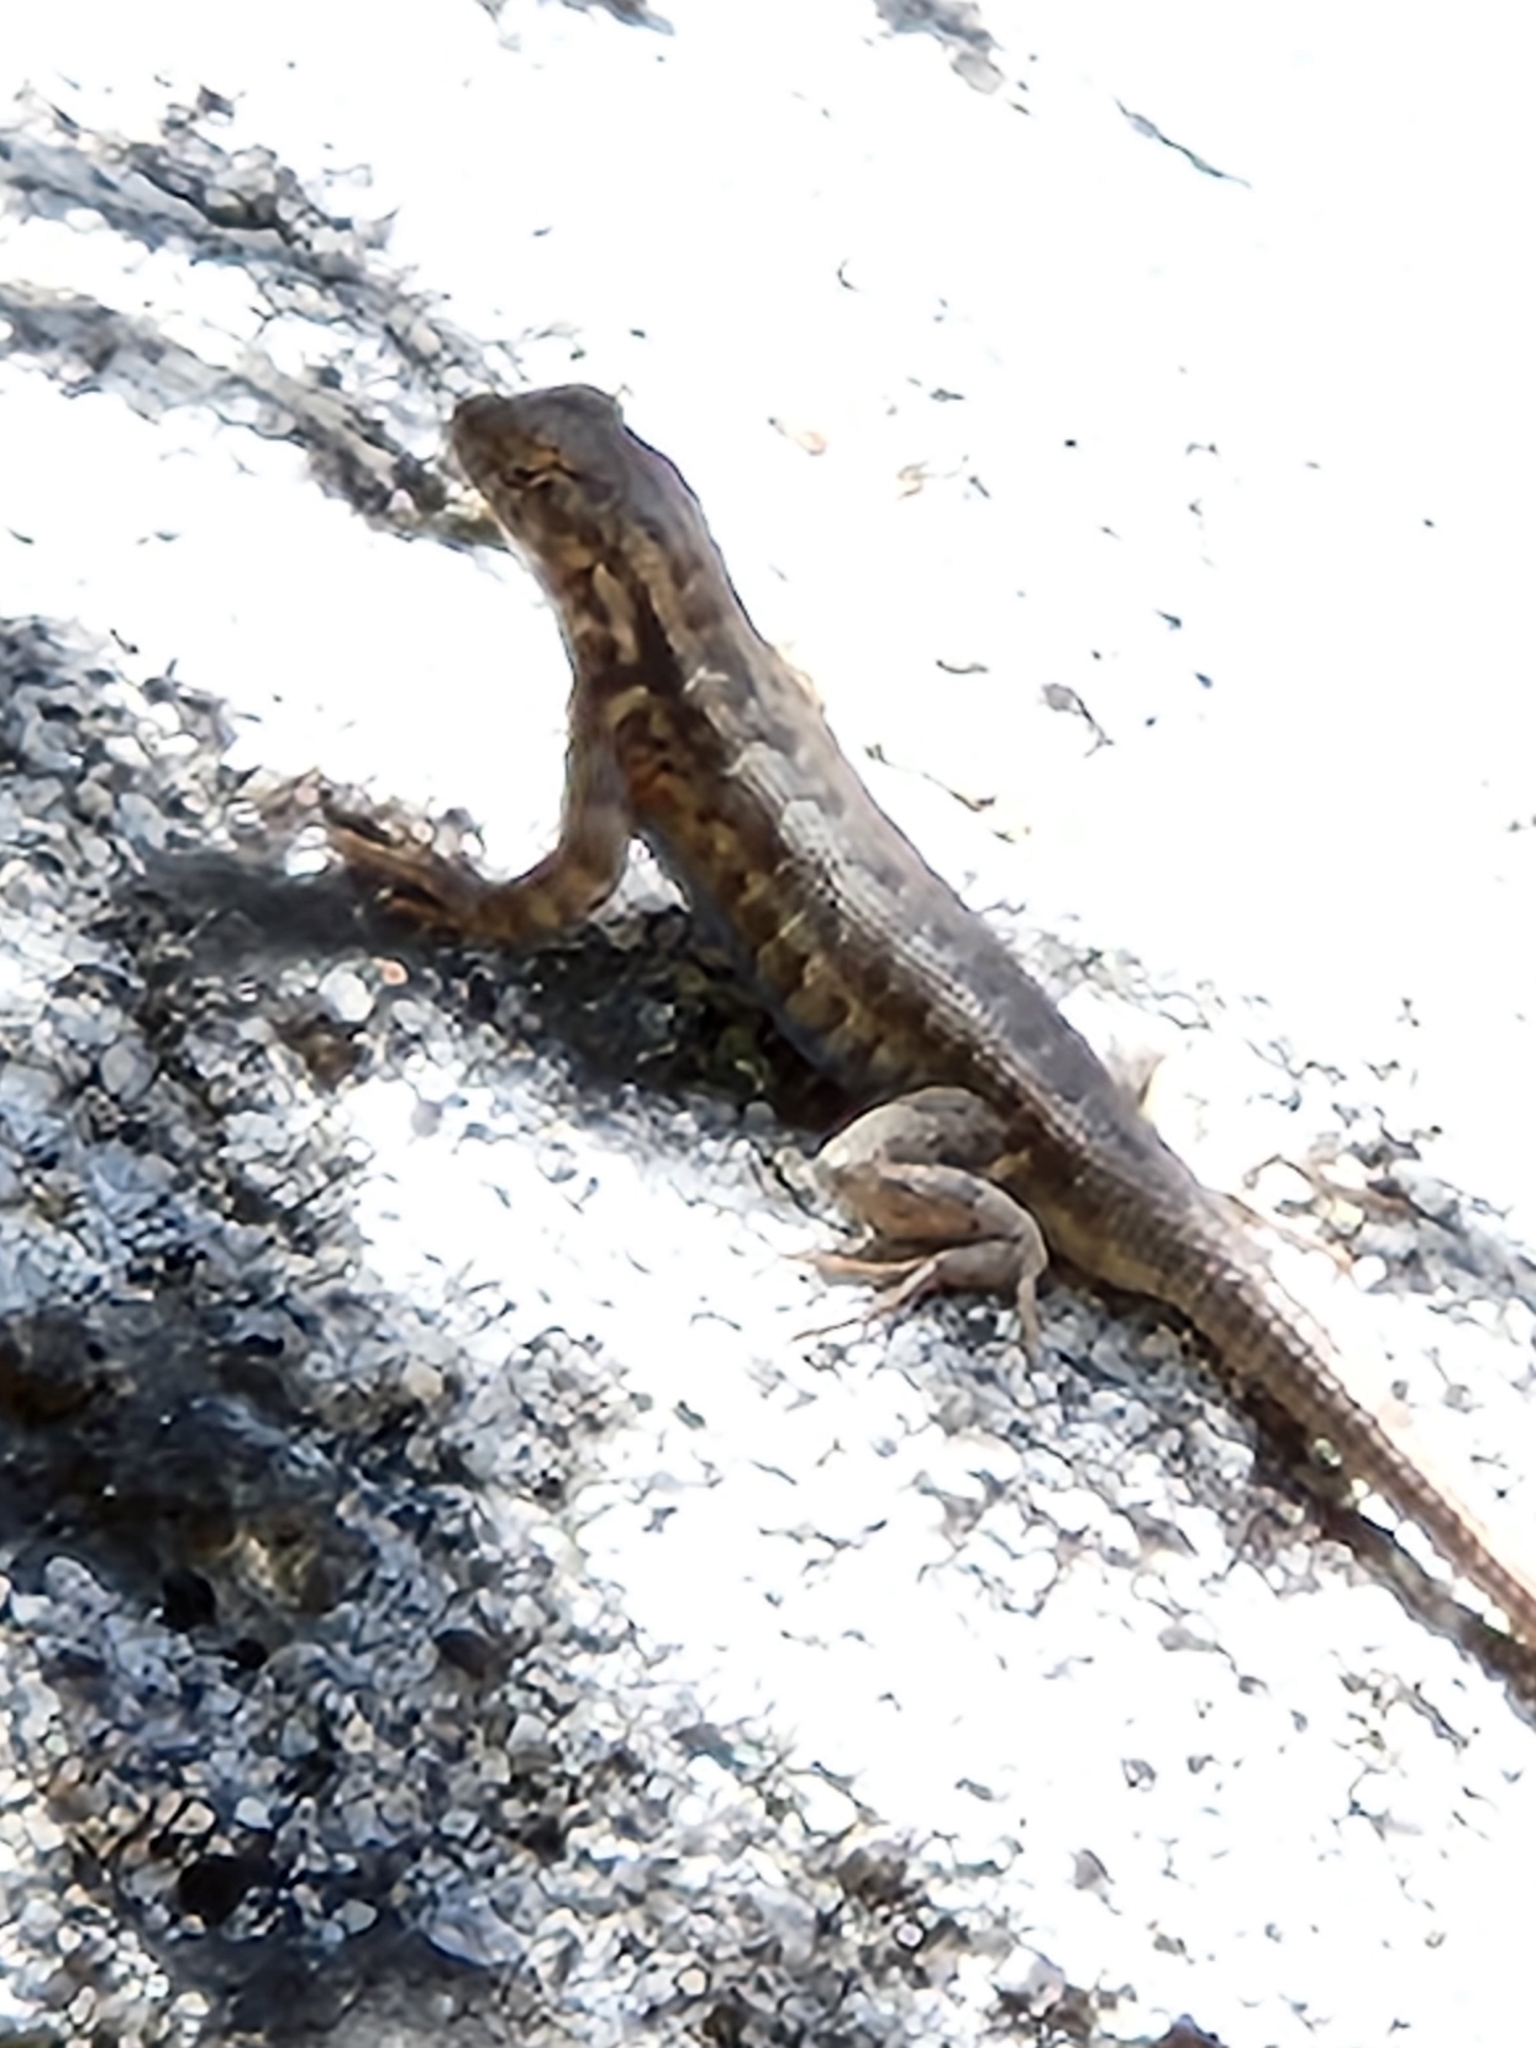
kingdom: Animalia
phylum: Chordata
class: Squamata
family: Phrynosomatidae
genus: Sceloporus
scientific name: Sceloporus graciosus
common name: Sagebrush lizard
